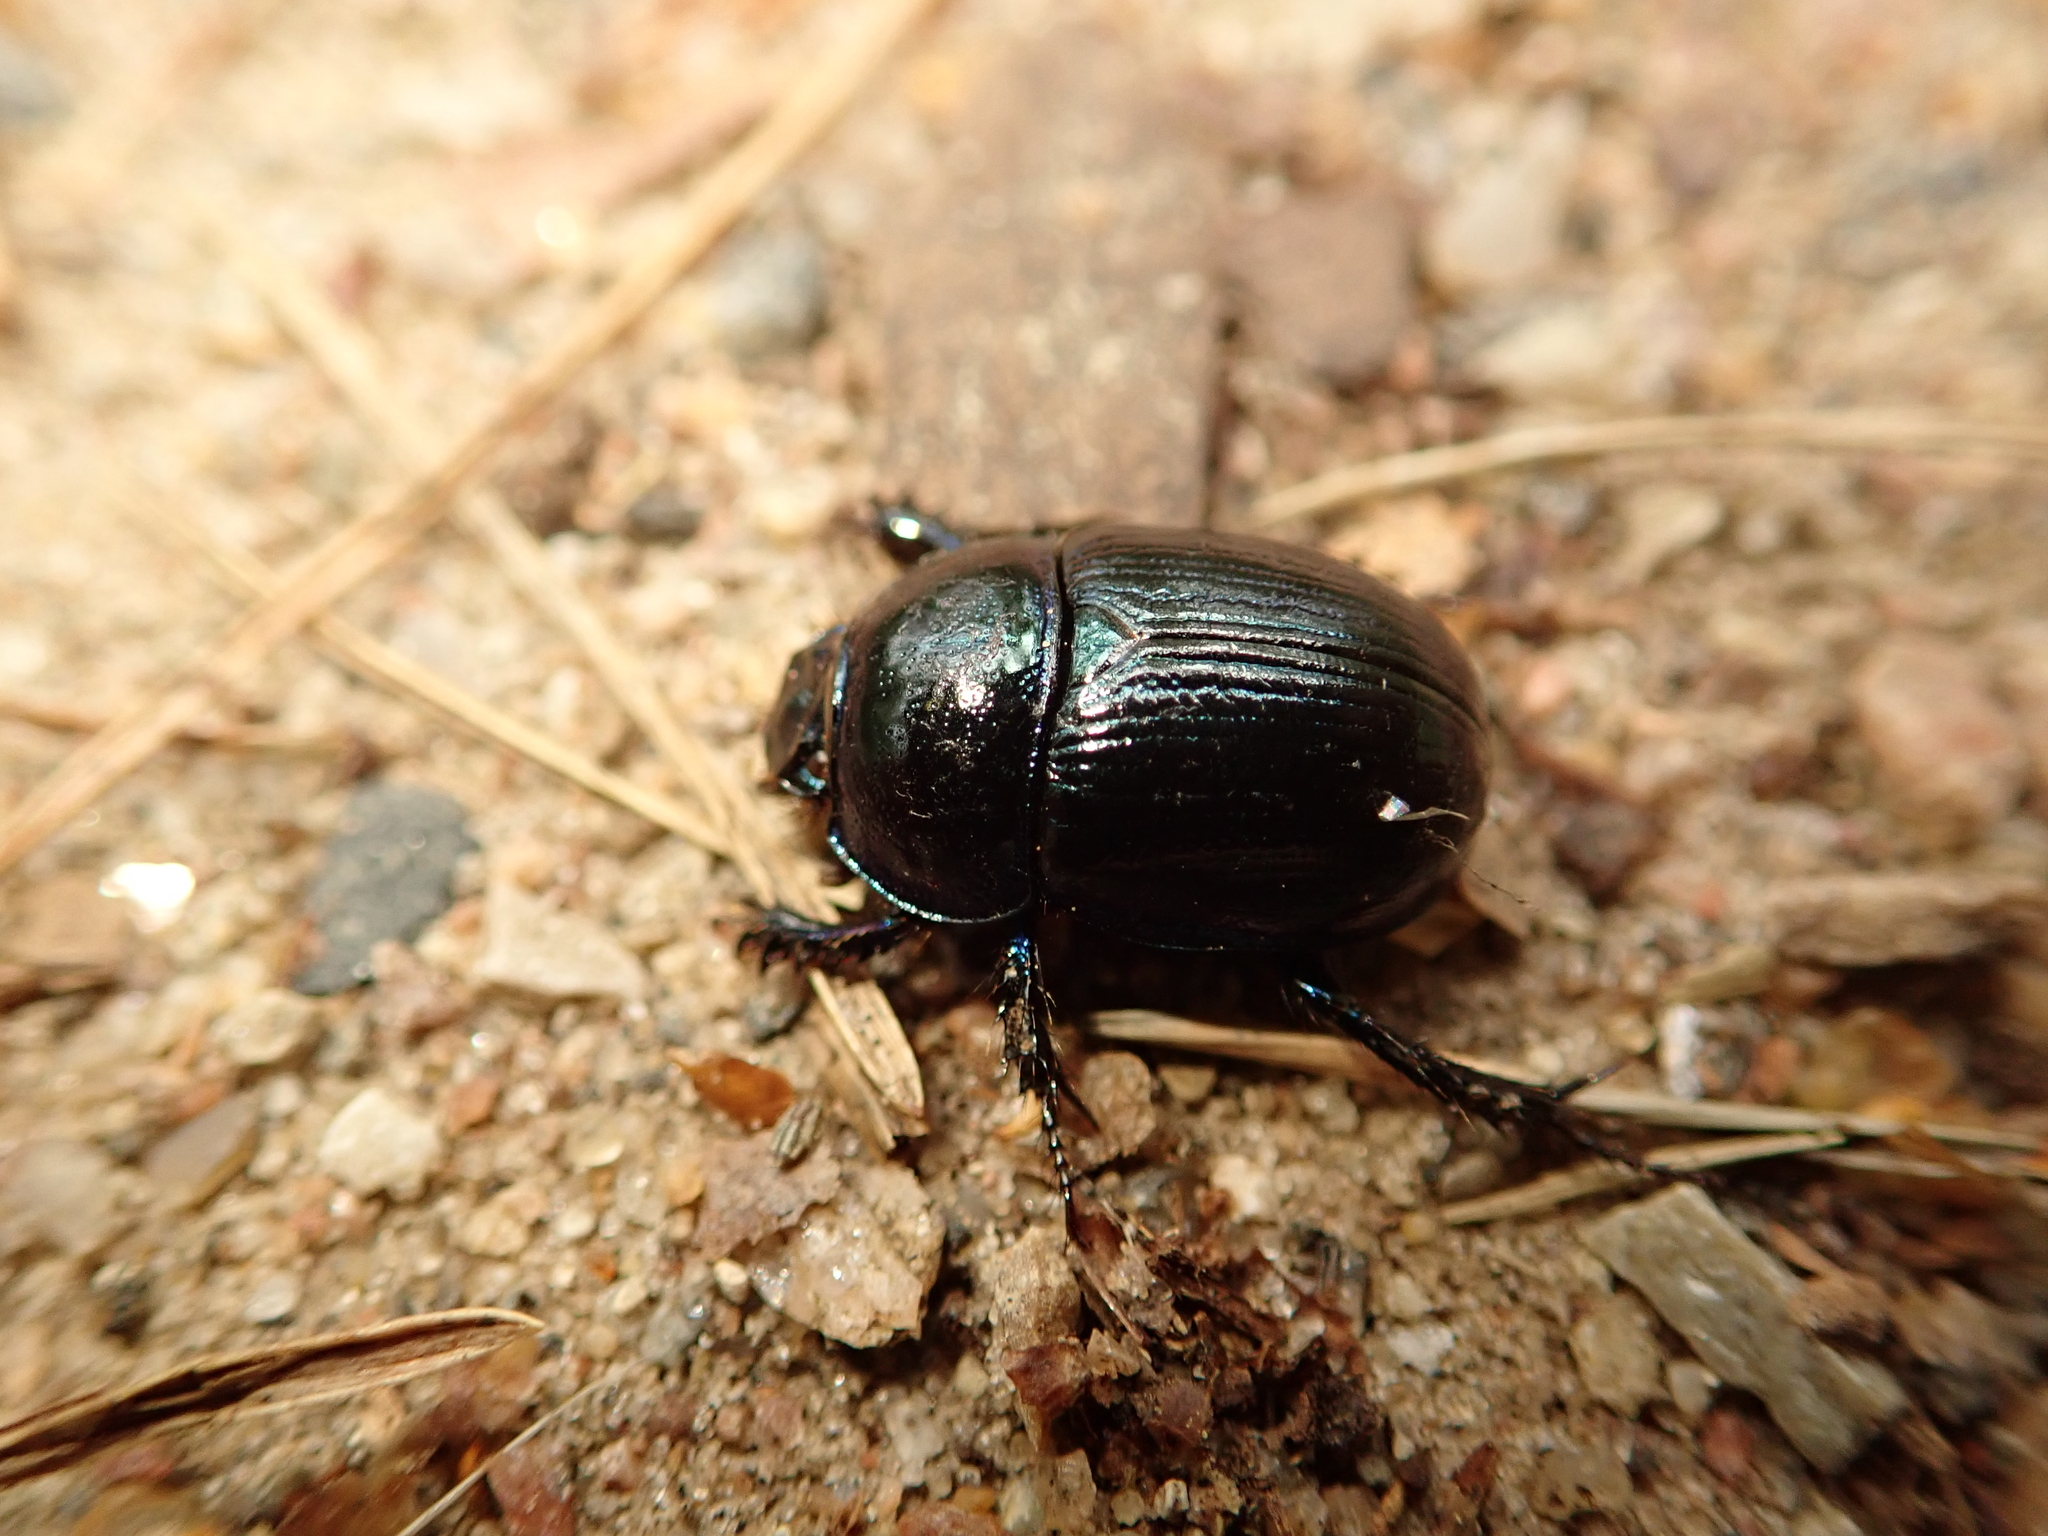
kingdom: Animalia
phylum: Arthropoda
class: Insecta
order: Coleoptera
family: Geotrupidae
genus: Anoplotrupes
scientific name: Anoplotrupes stercorosus
